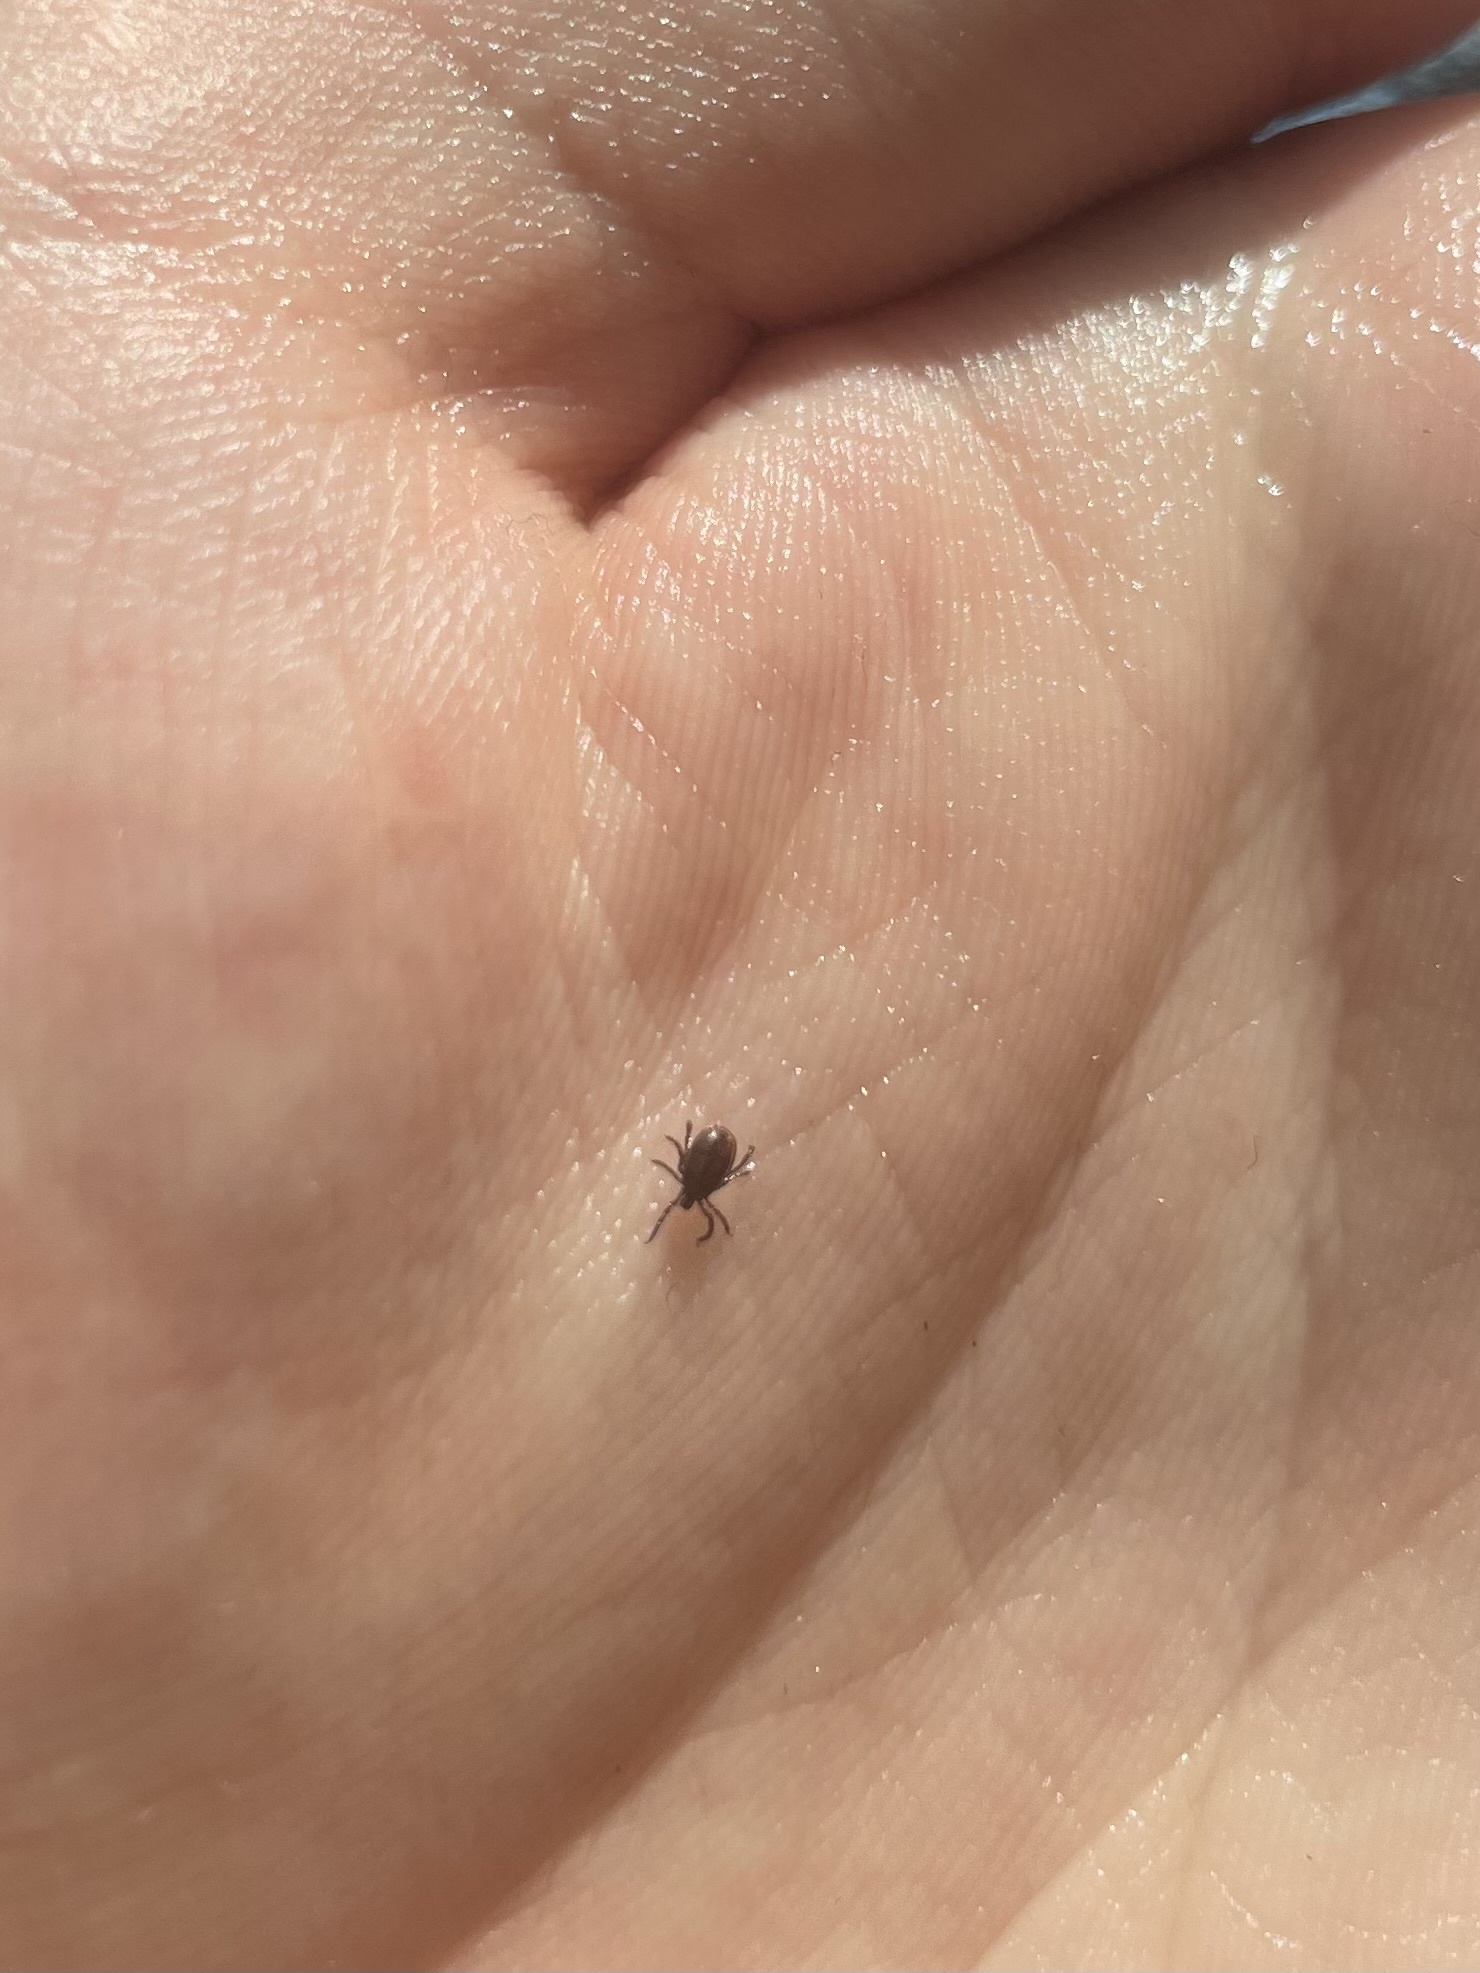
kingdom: Animalia
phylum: Arthropoda
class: Arachnida
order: Ixodida
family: Ixodidae
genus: Ixodes
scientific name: Ixodes pacificus
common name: California black-legged tick
